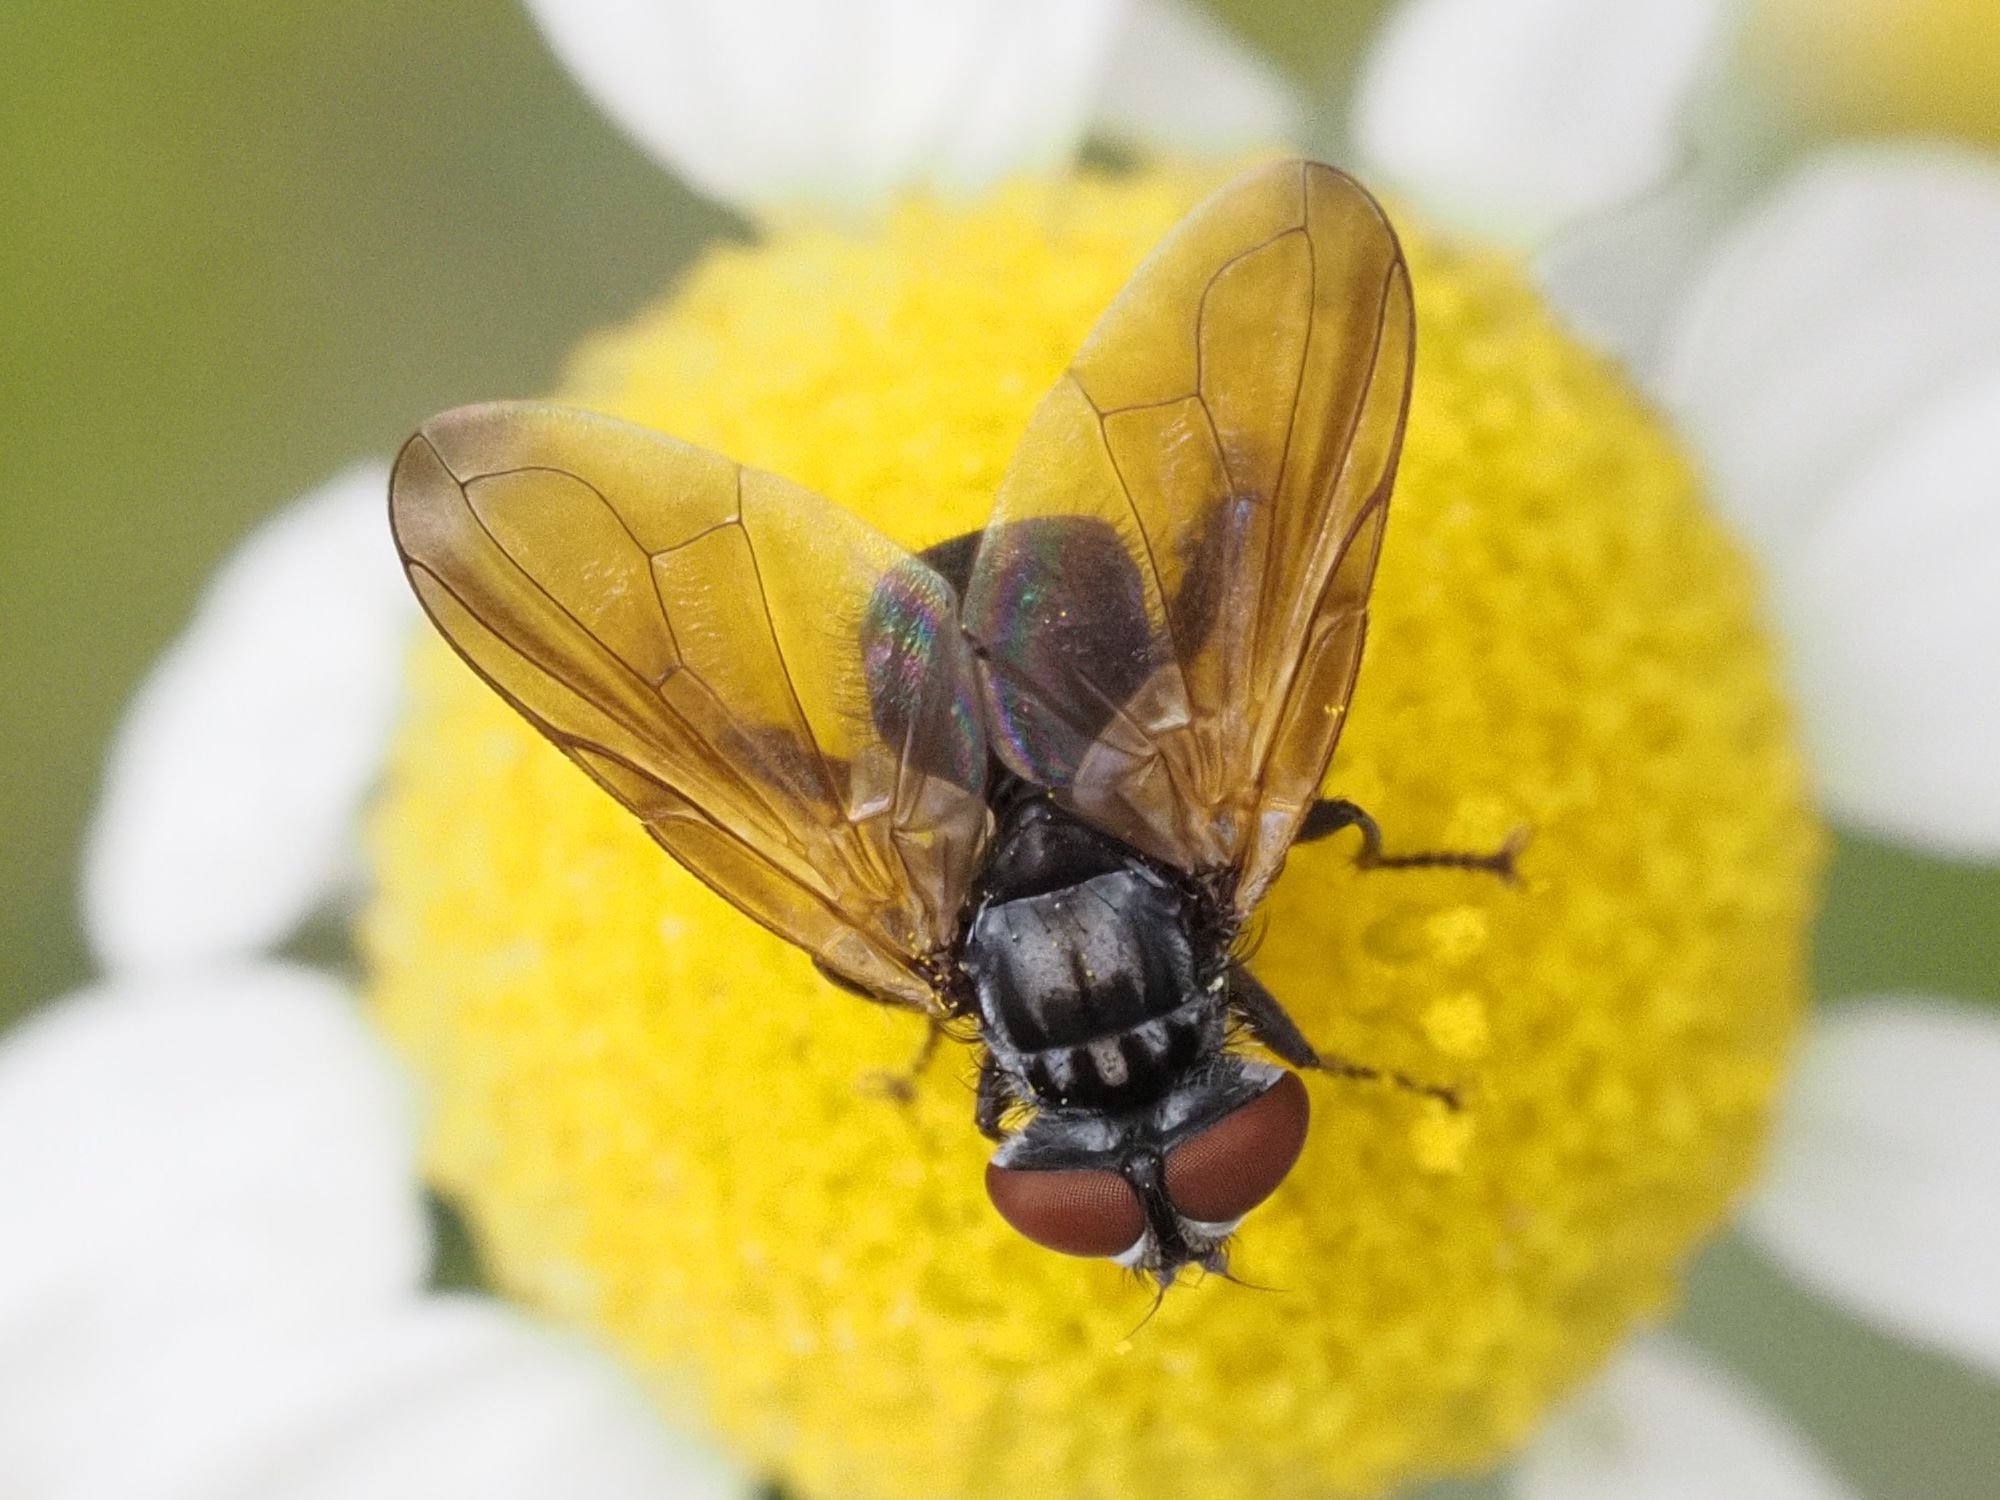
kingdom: Animalia
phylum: Arthropoda
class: Insecta
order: Diptera
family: Tachinidae
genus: Phasia
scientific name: Phasia obesa
